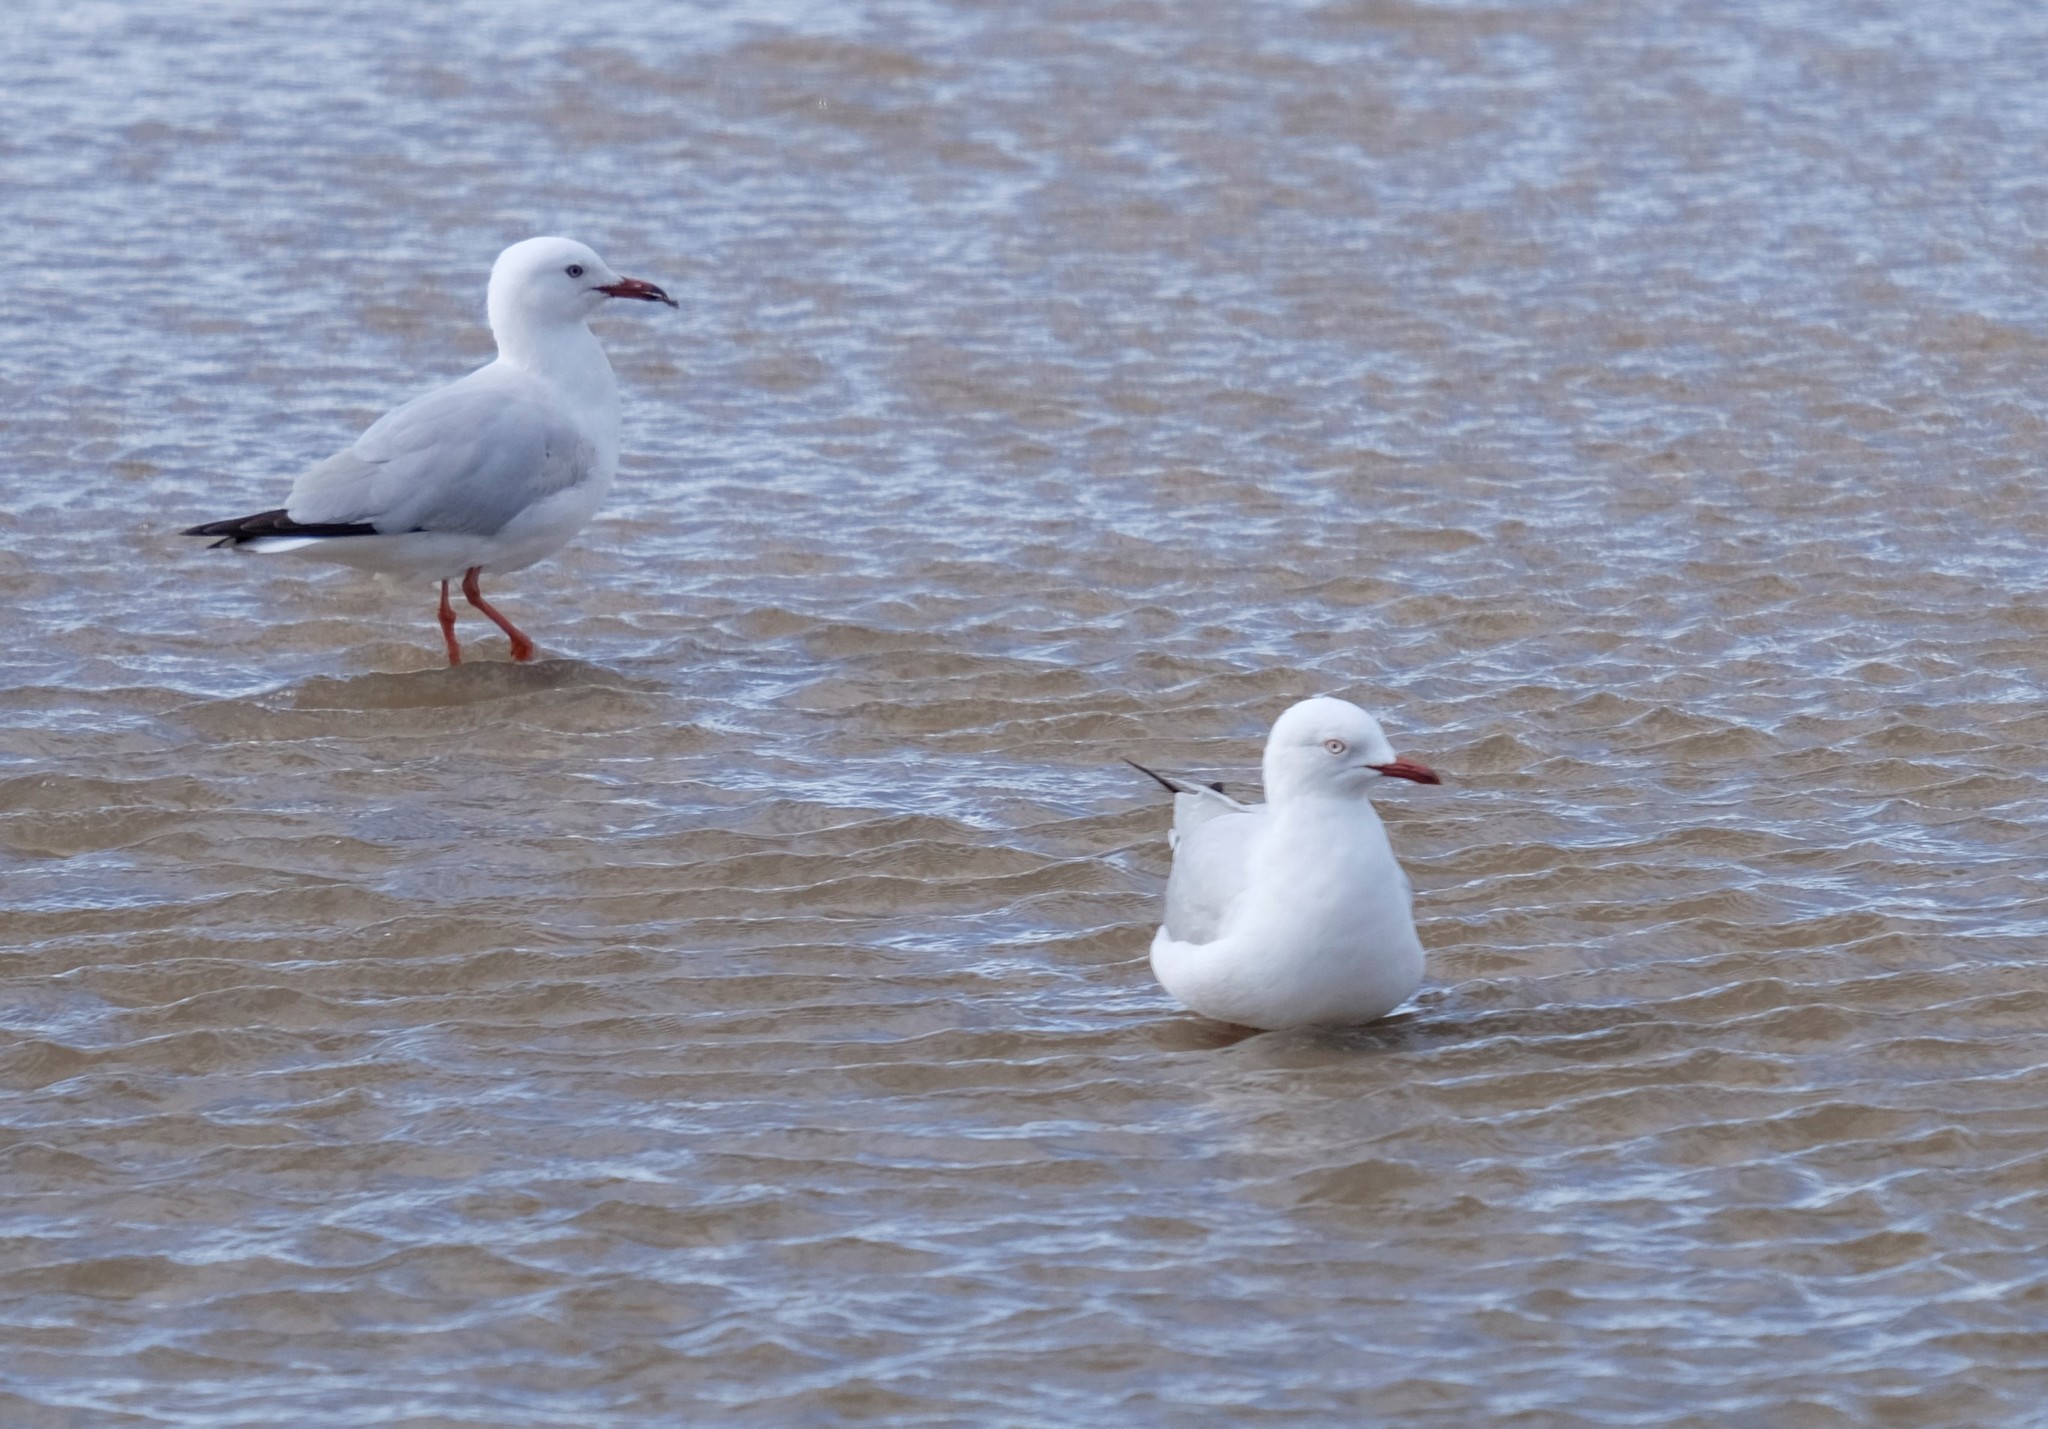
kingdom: Animalia
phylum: Chordata
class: Aves
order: Charadriiformes
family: Laridae
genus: Chroicocephalus
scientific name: Chroicocephalus novaehollandiae
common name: Silver gull
